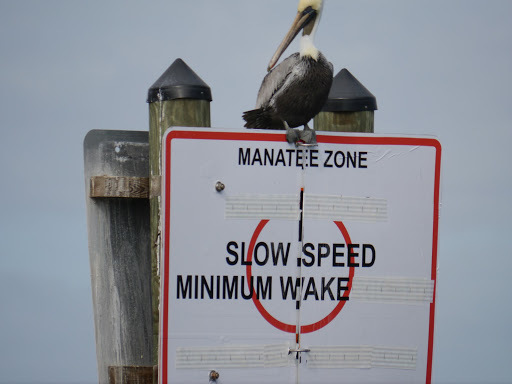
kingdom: Animalia
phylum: Chordata
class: Aves
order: Pelecaniformes
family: Pelecanidae
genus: Pelecanus
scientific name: Pelecanus occidentalis
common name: Brown pelican
